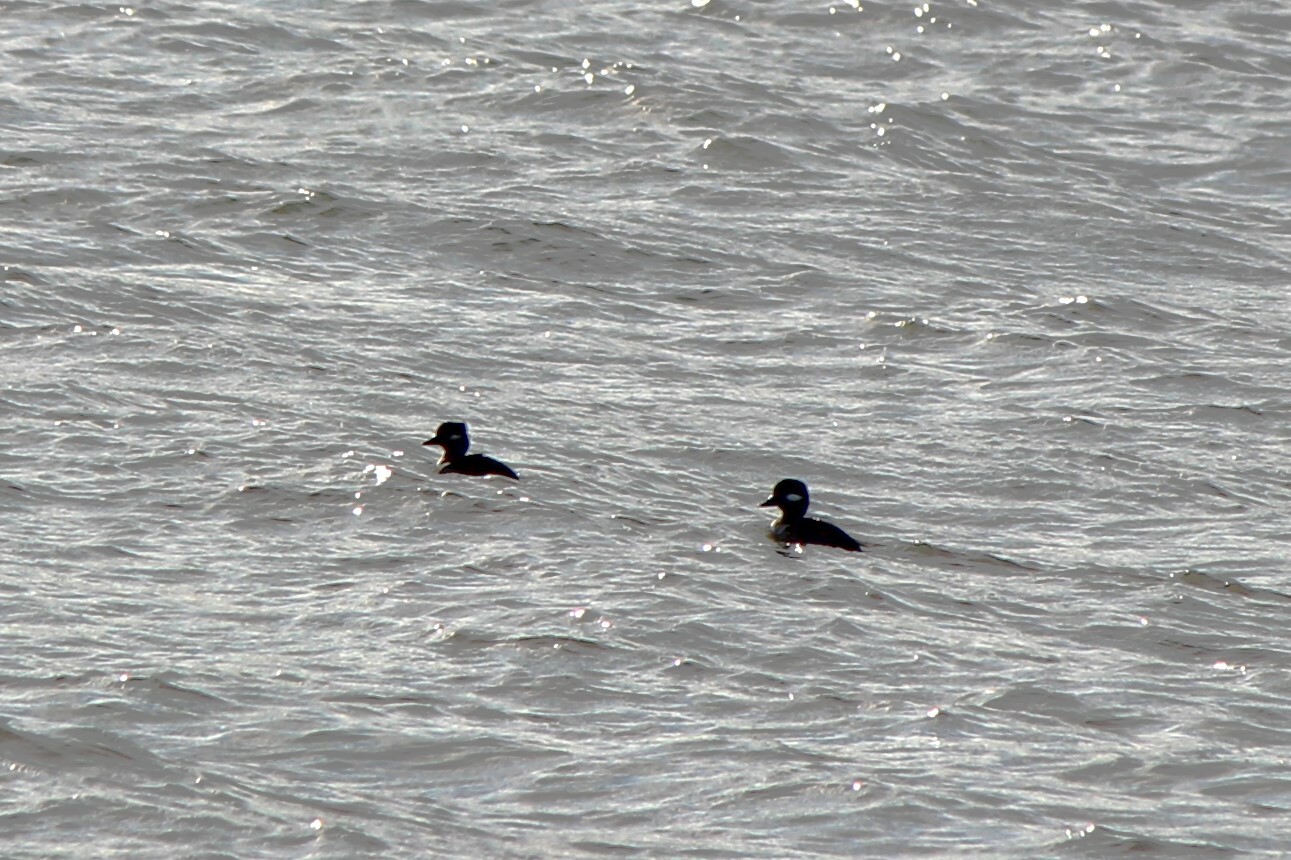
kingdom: Animalia
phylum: Chordata
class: Aves
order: Anseriformes
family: Anatidae
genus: Bucephala
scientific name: Bucephala albeola
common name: Bufflehead
